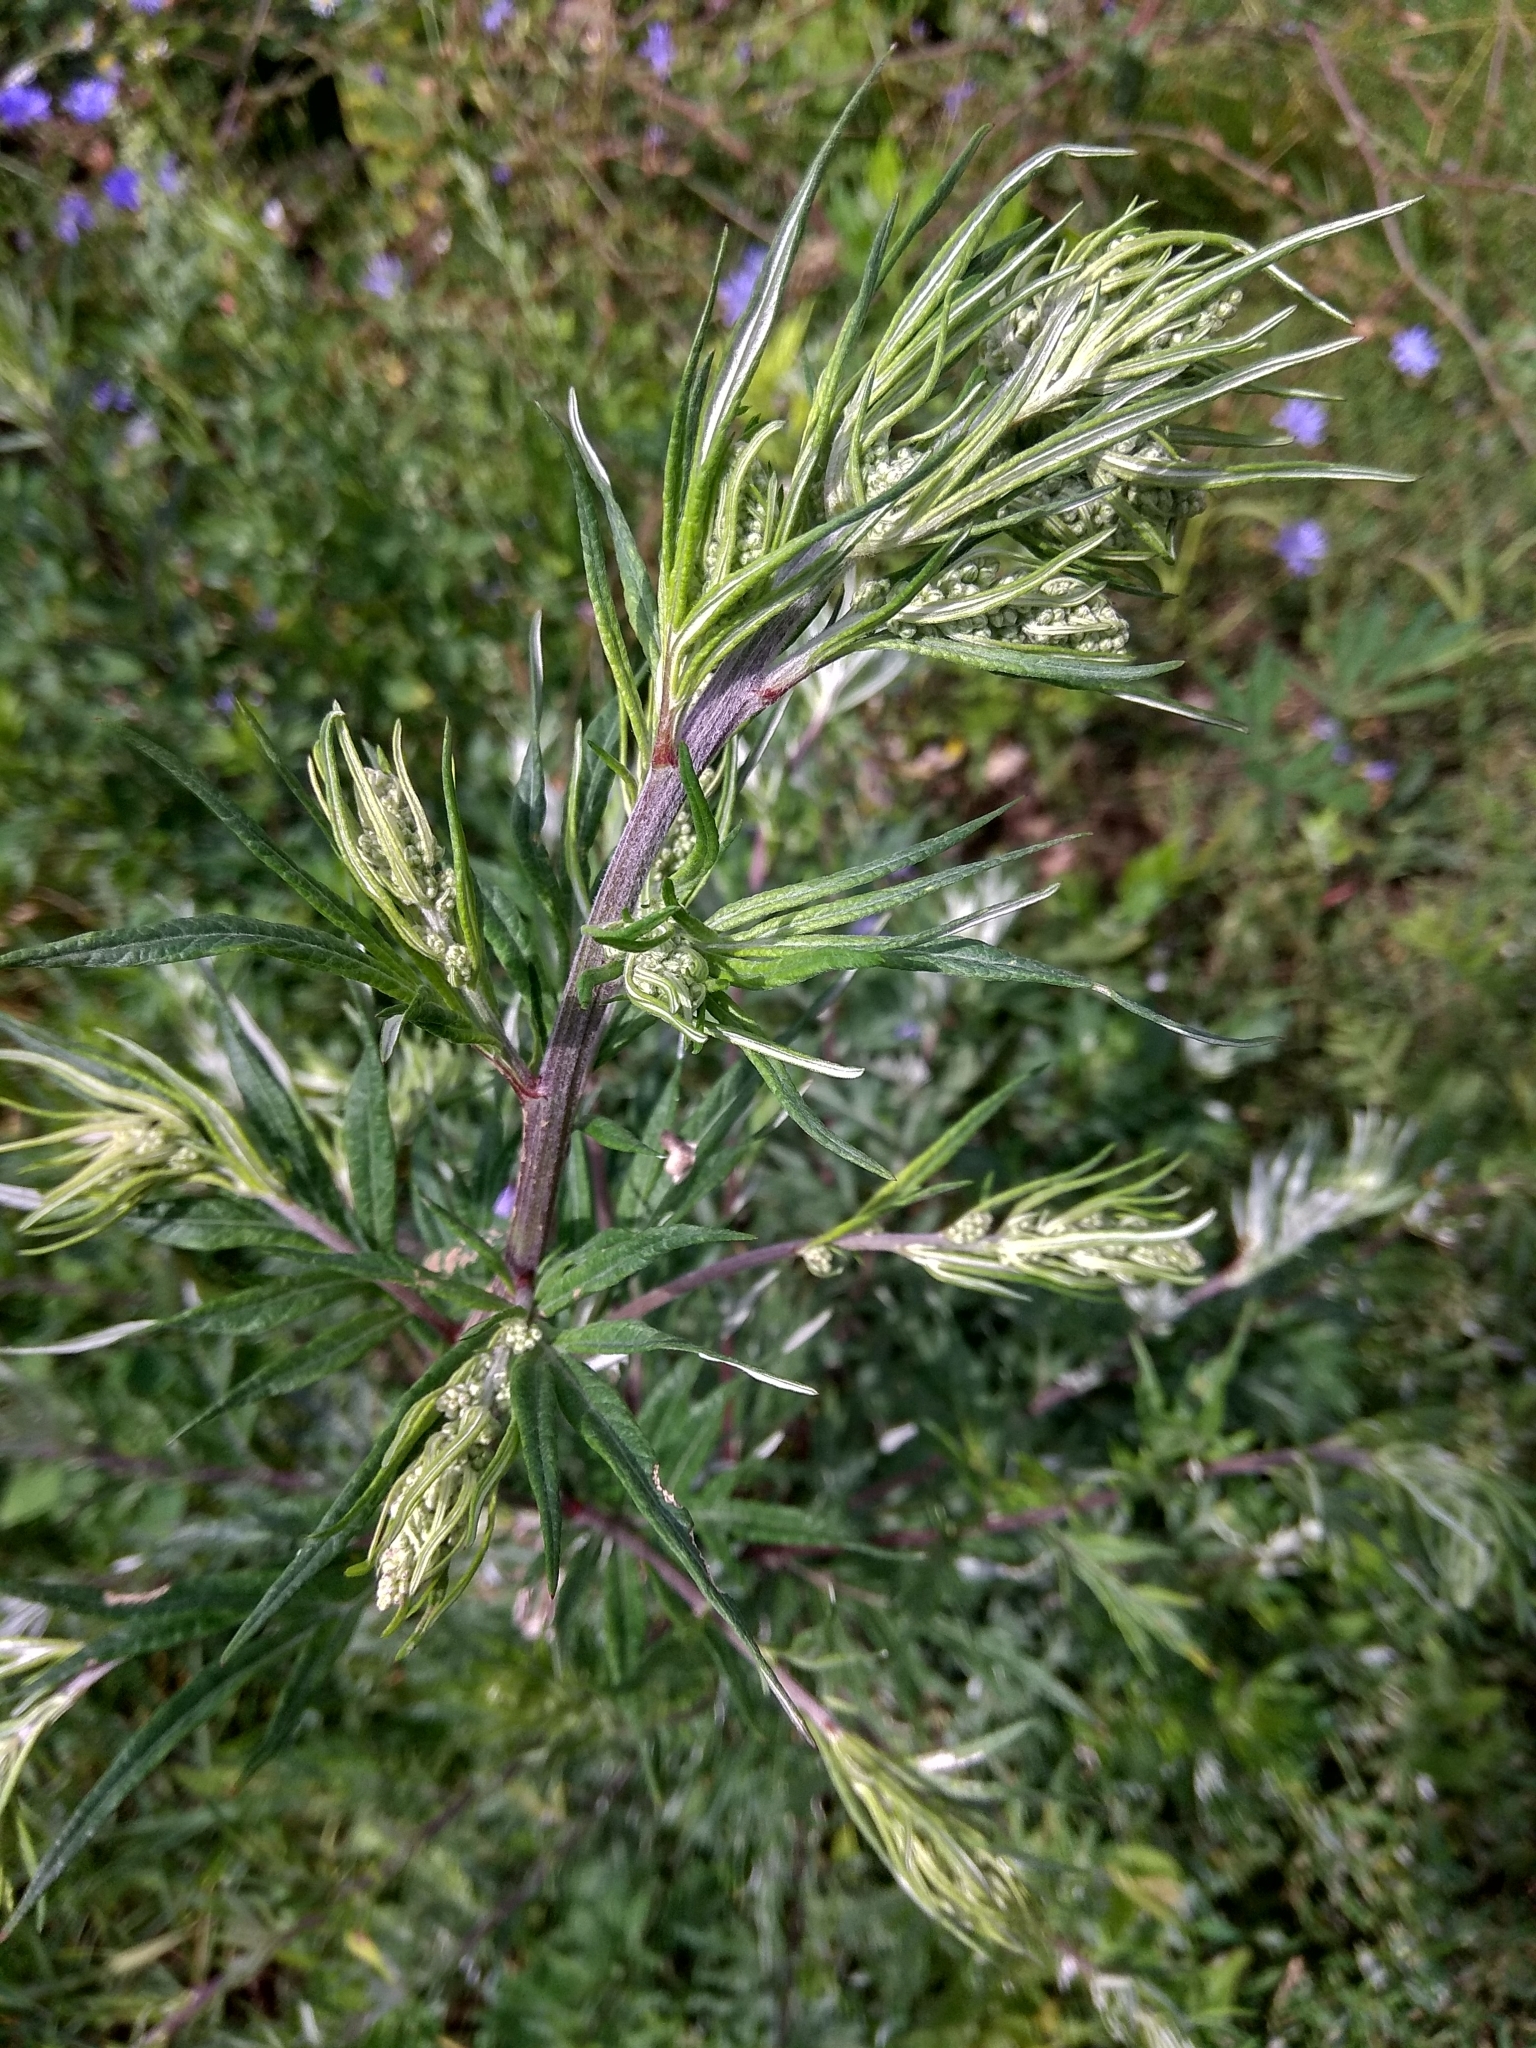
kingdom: Plantae
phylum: Tracheophyta
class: Magnoliopsida
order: Asterales
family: Asteraceae
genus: Artemisia
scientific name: Artemisia vulgaris
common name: Mugwort
